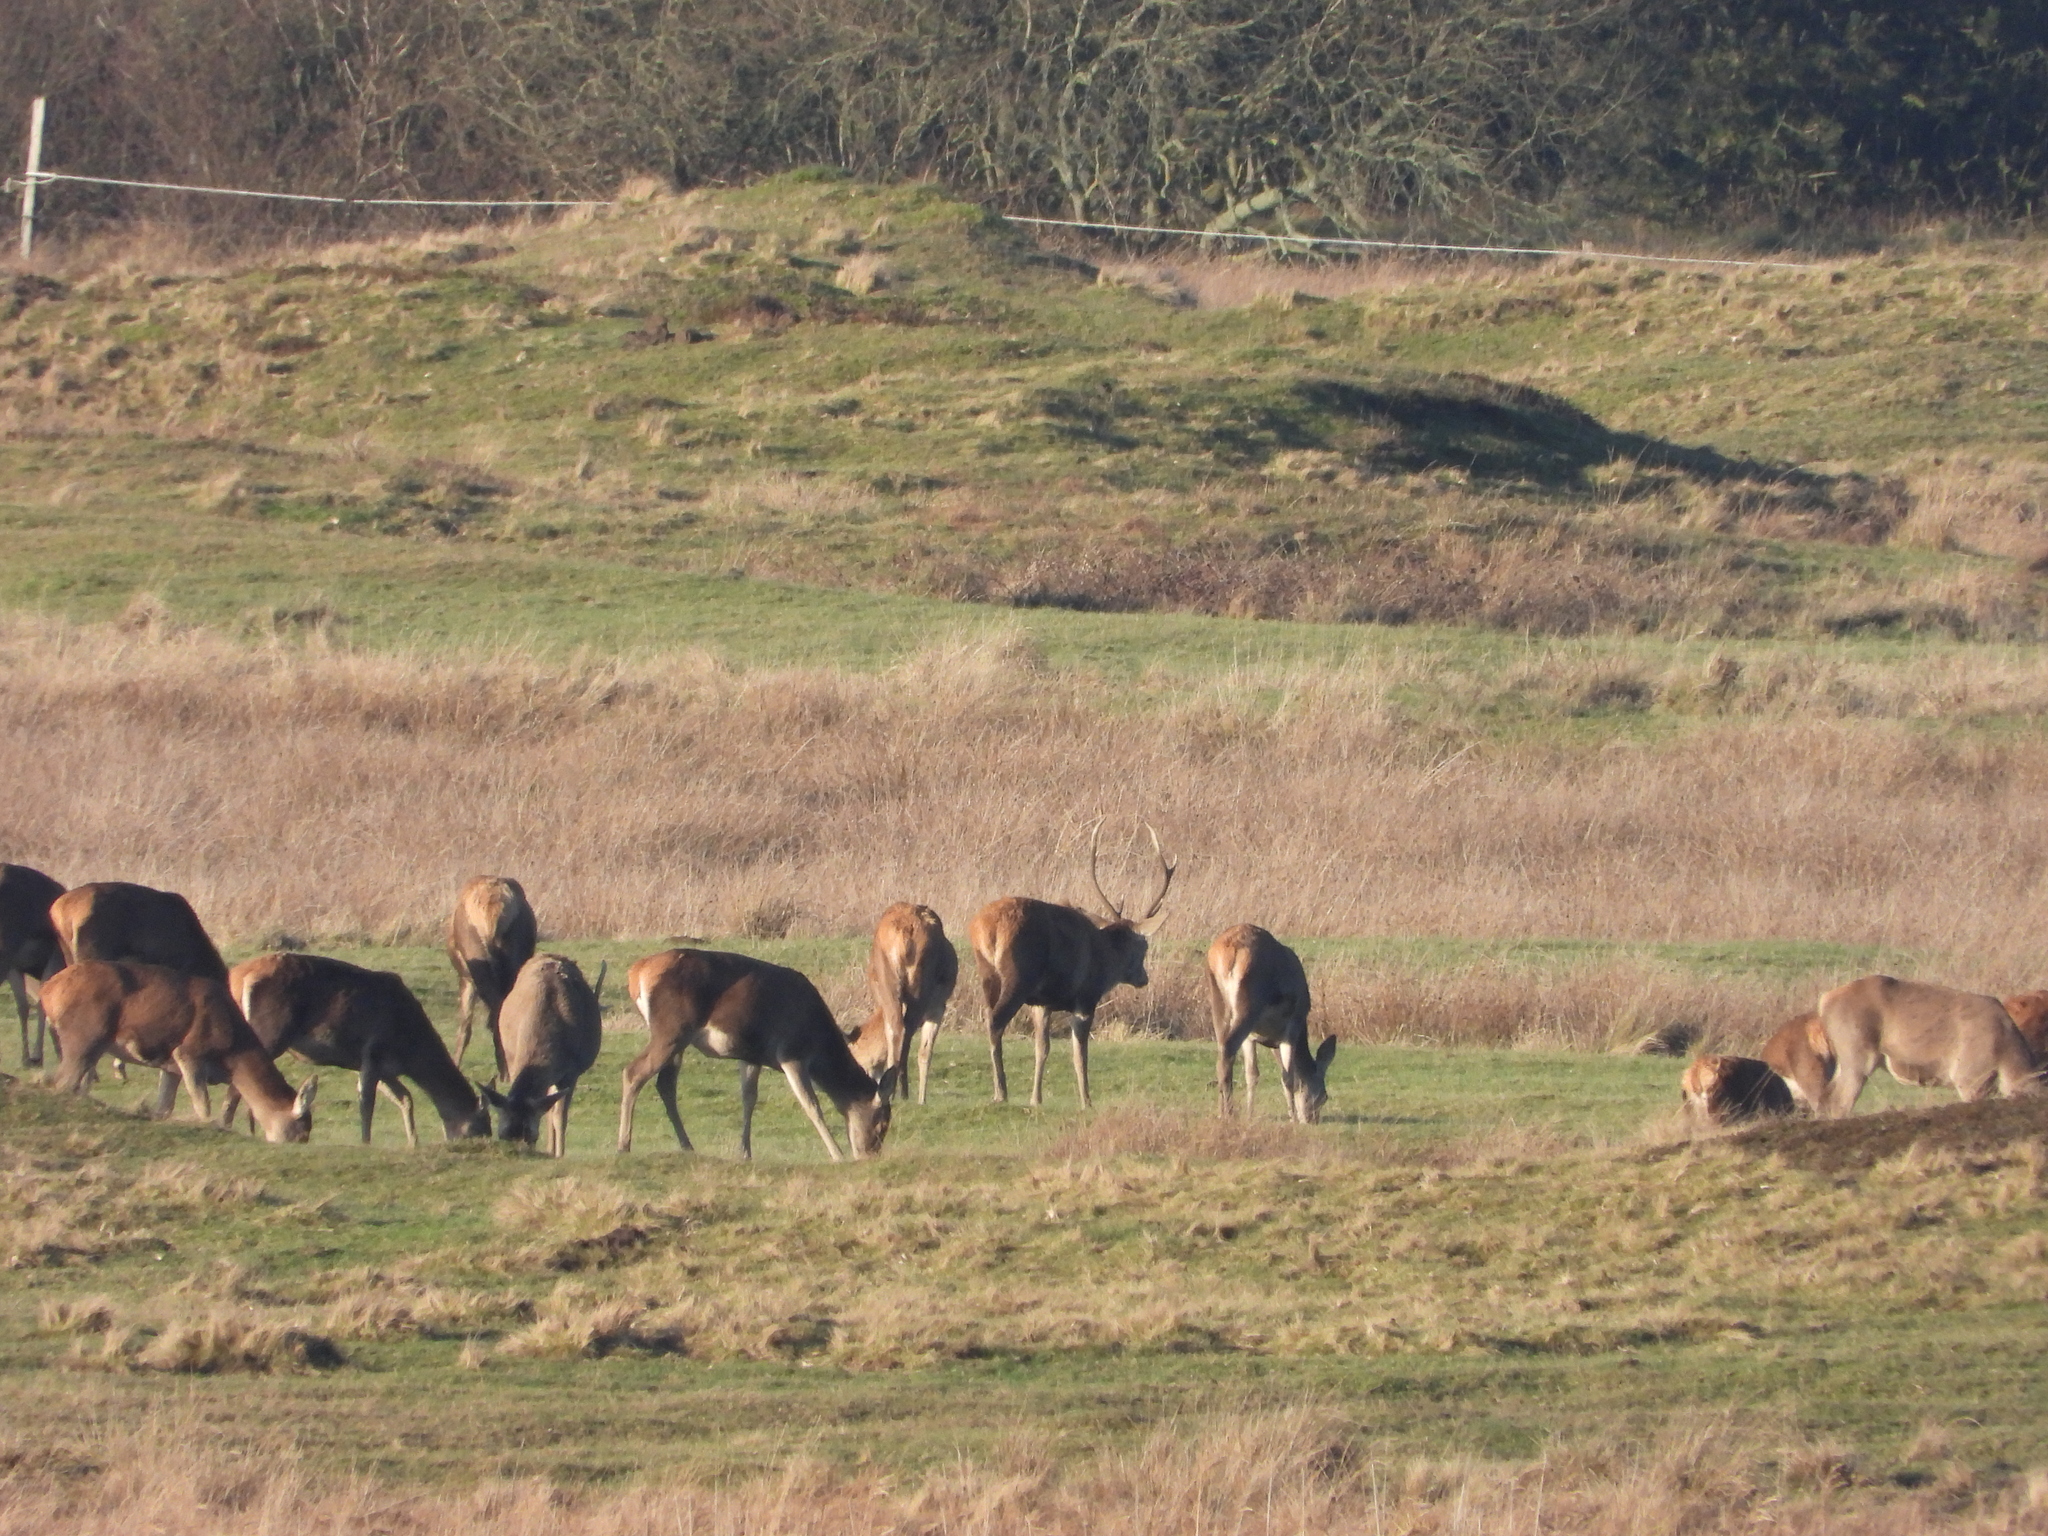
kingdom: Animalia
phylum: Chordata
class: Mammalia
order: Artiodactyla
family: Cervidae
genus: Cervus
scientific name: Cervus elaphus
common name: Red deer
